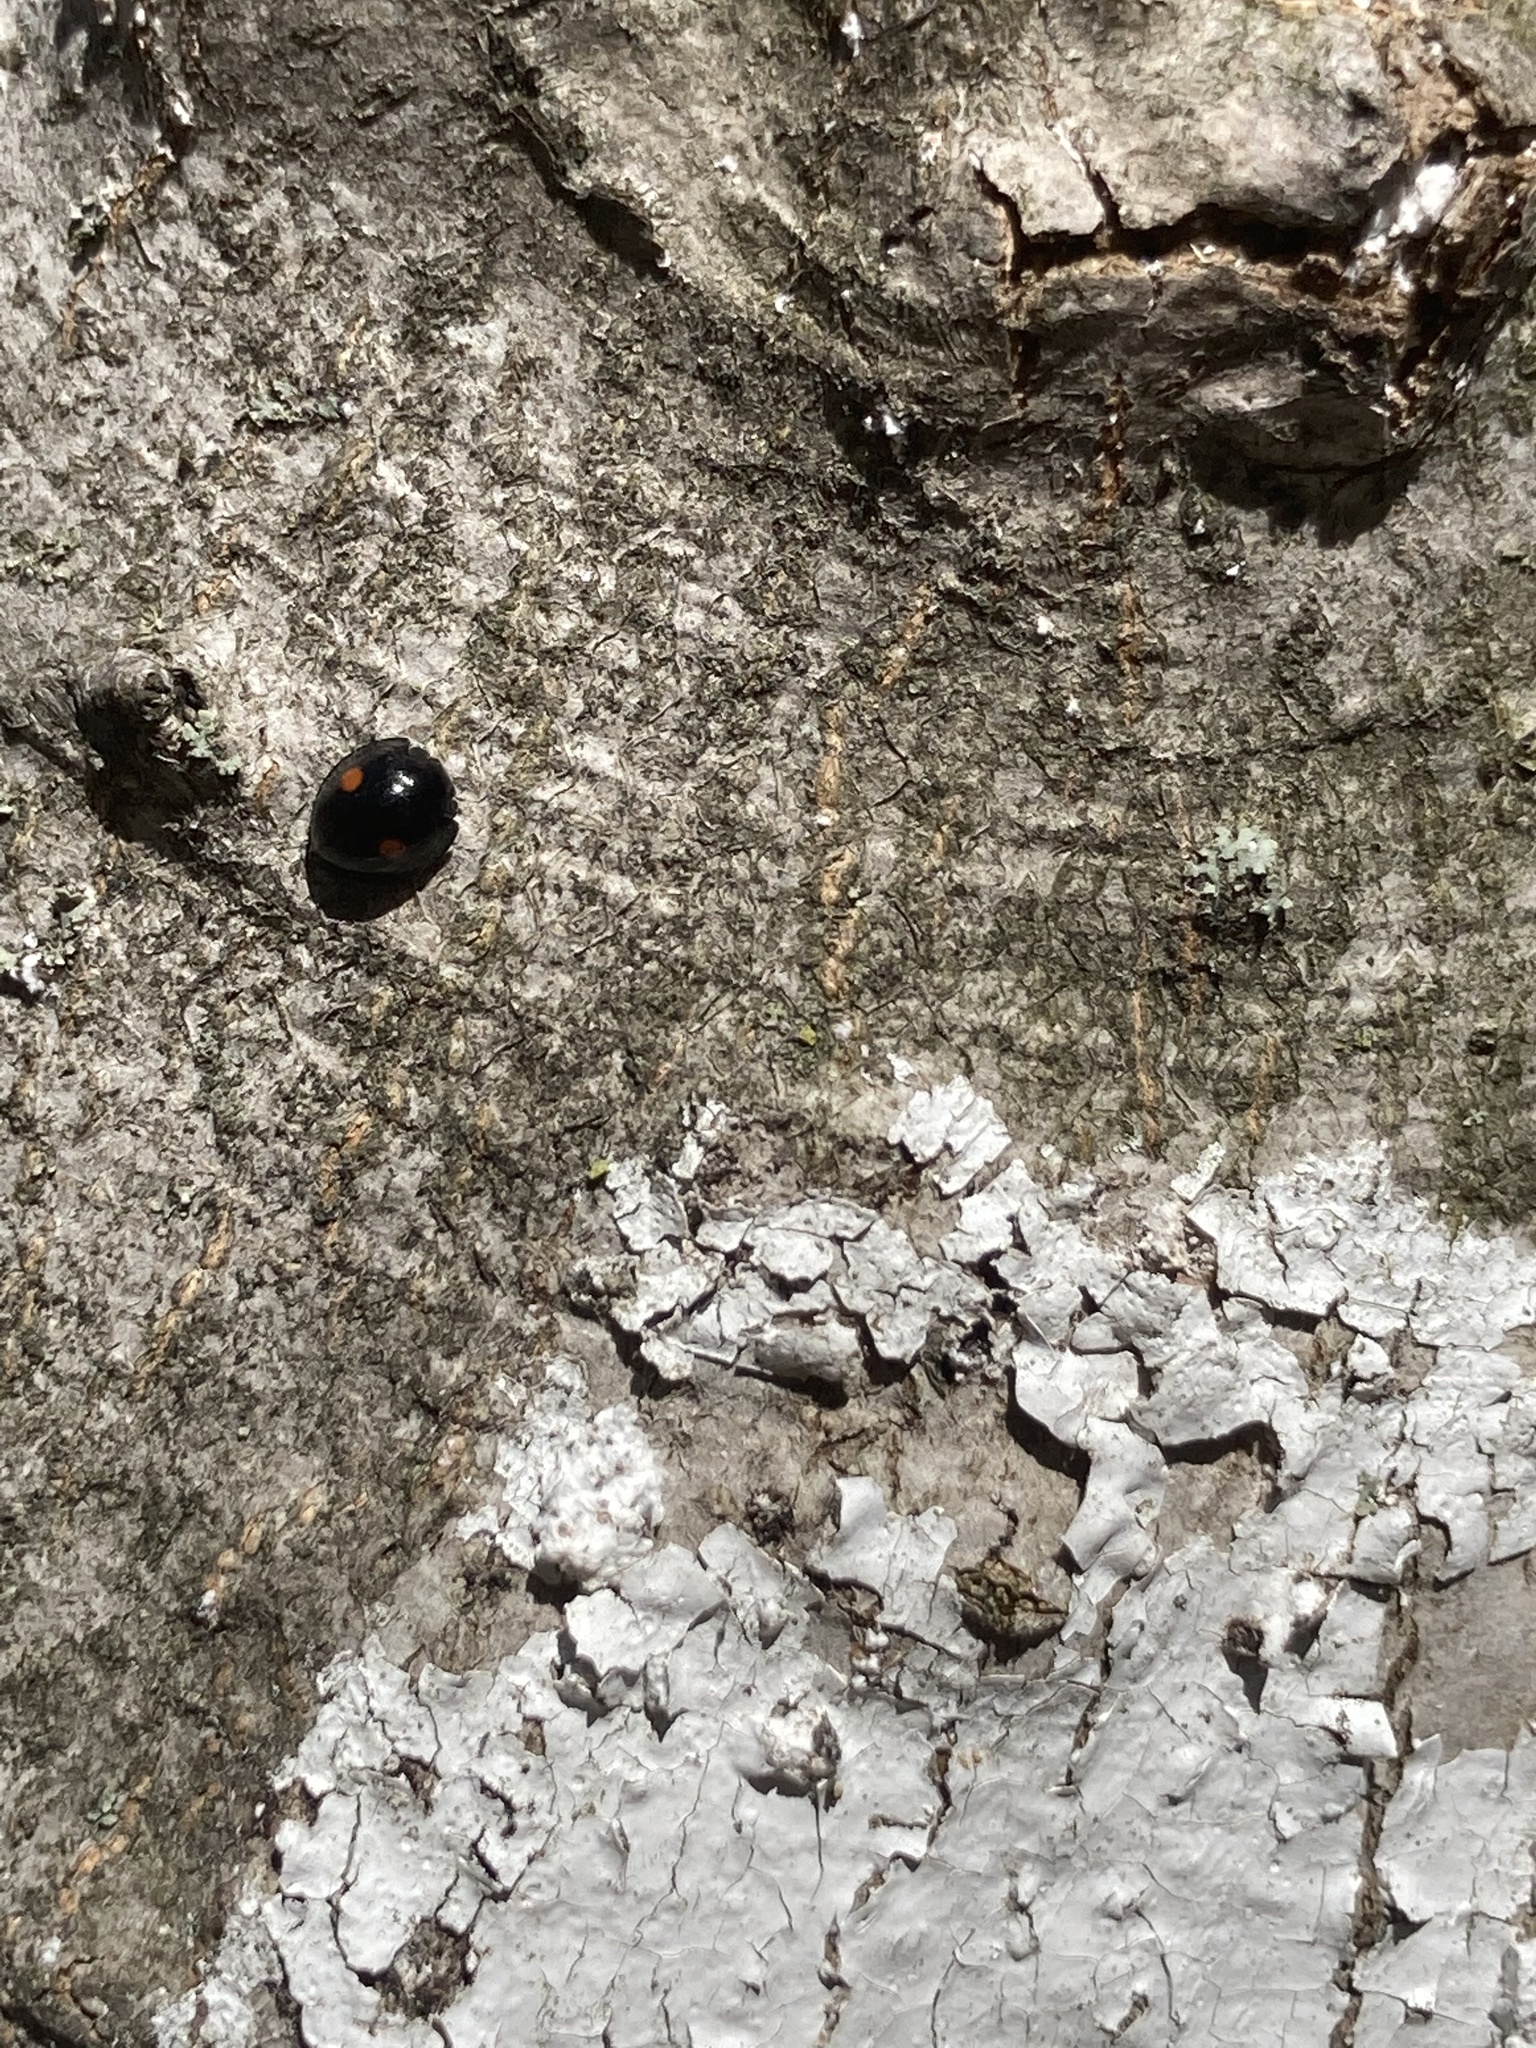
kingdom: Animalia
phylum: Arthropoda
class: Insecta
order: Coleoptera
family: Coccinellidae
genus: Chilocorus
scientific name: Chilocorus stigma
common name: Twicestabbed lady beetle
